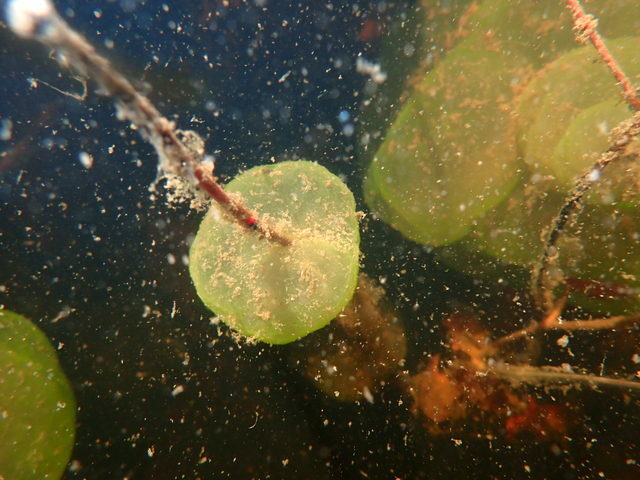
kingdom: Chromista
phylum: Ciliophora
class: Oligohymenophorea
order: Peritrichida
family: Ophrydiidae
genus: Ophrydium
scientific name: Ophrydium
